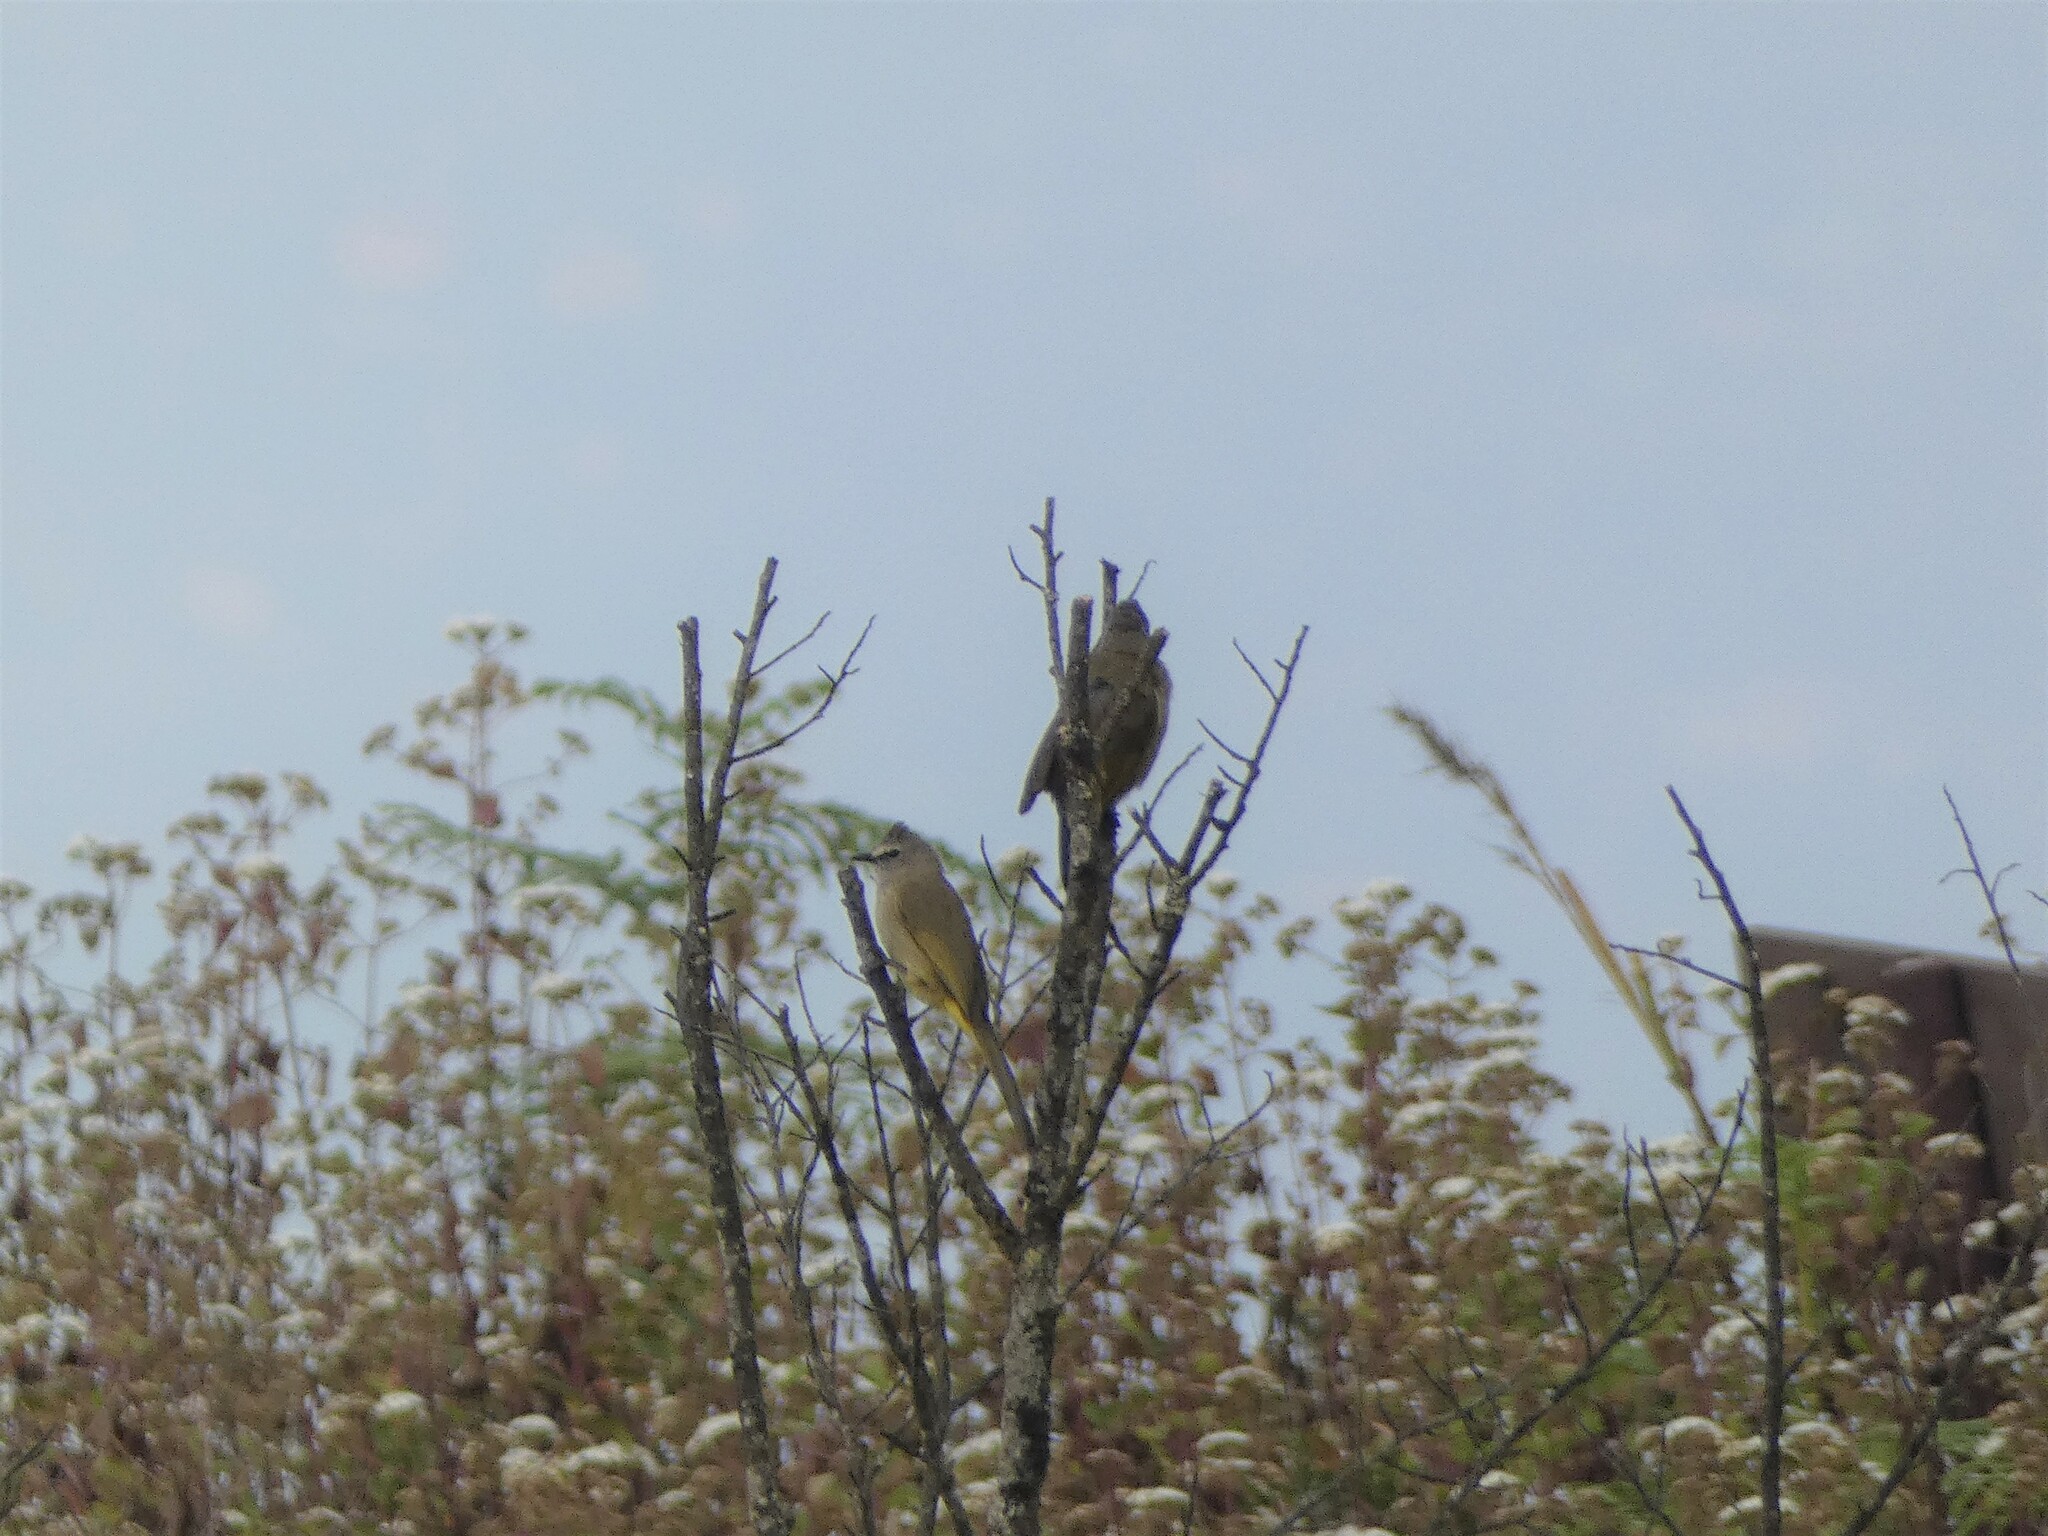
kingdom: Animalia
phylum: Chordata
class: Aves
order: Passeriformes
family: Pycnonotidae
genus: Pycnonotus
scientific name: Pycnonotus flavescens
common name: Flavescent bulbul
